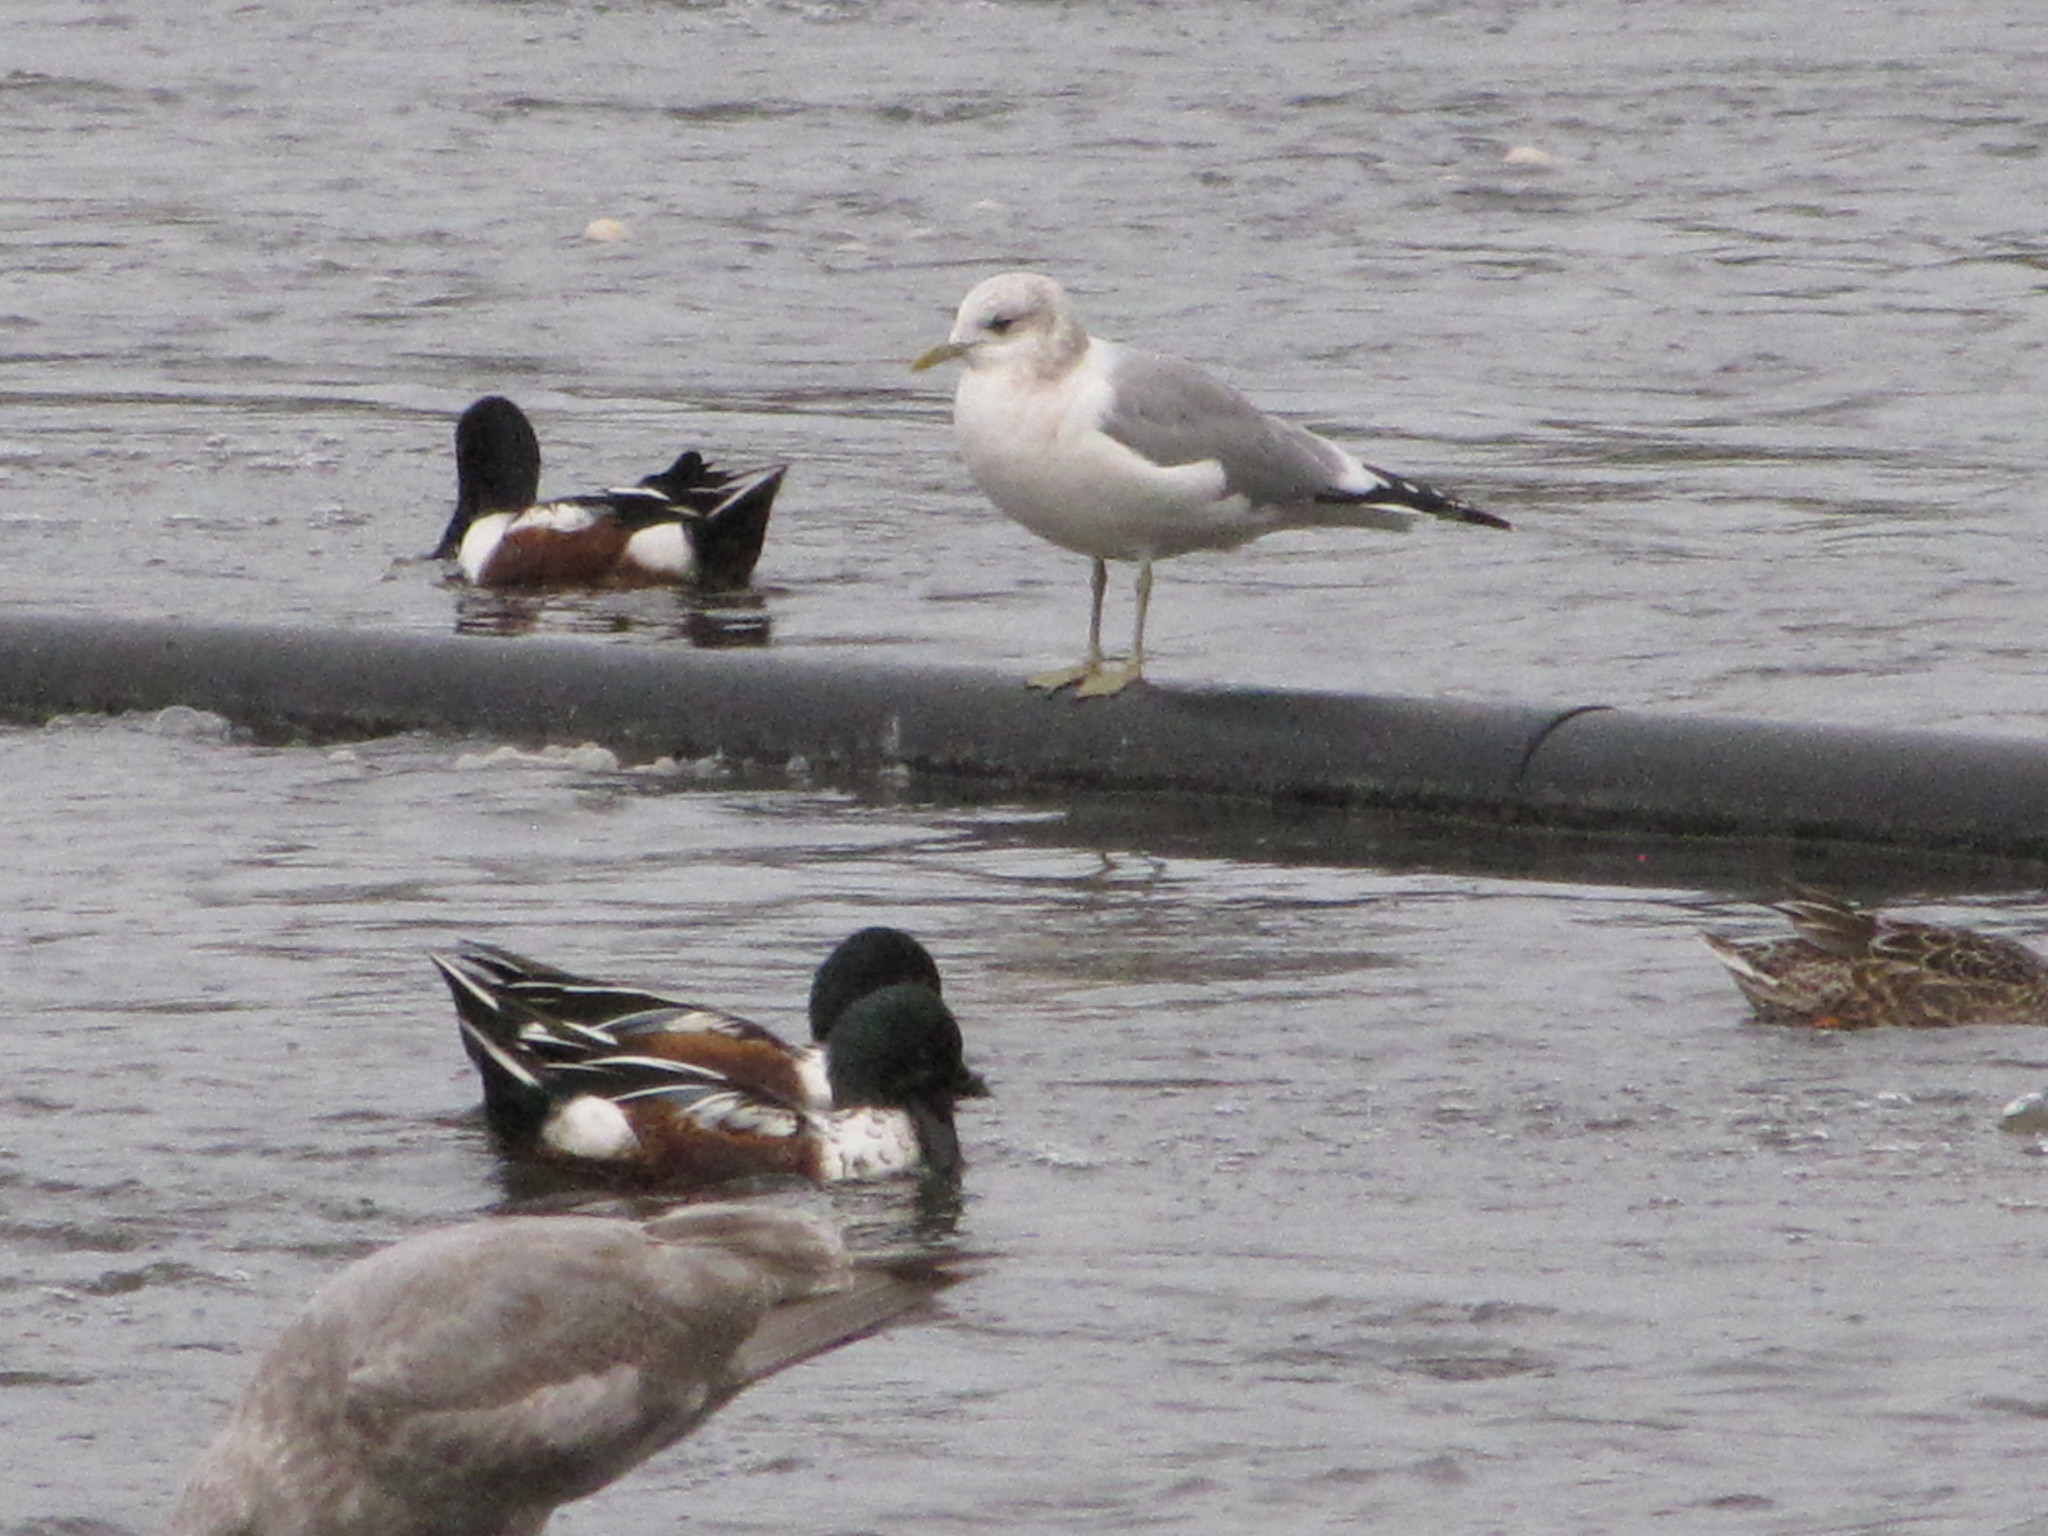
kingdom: Animalia
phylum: Chordata
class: Aves
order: Anseriformes
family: Anatidae
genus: Spatula
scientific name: Spatula clypeata
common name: Northern shoveler
